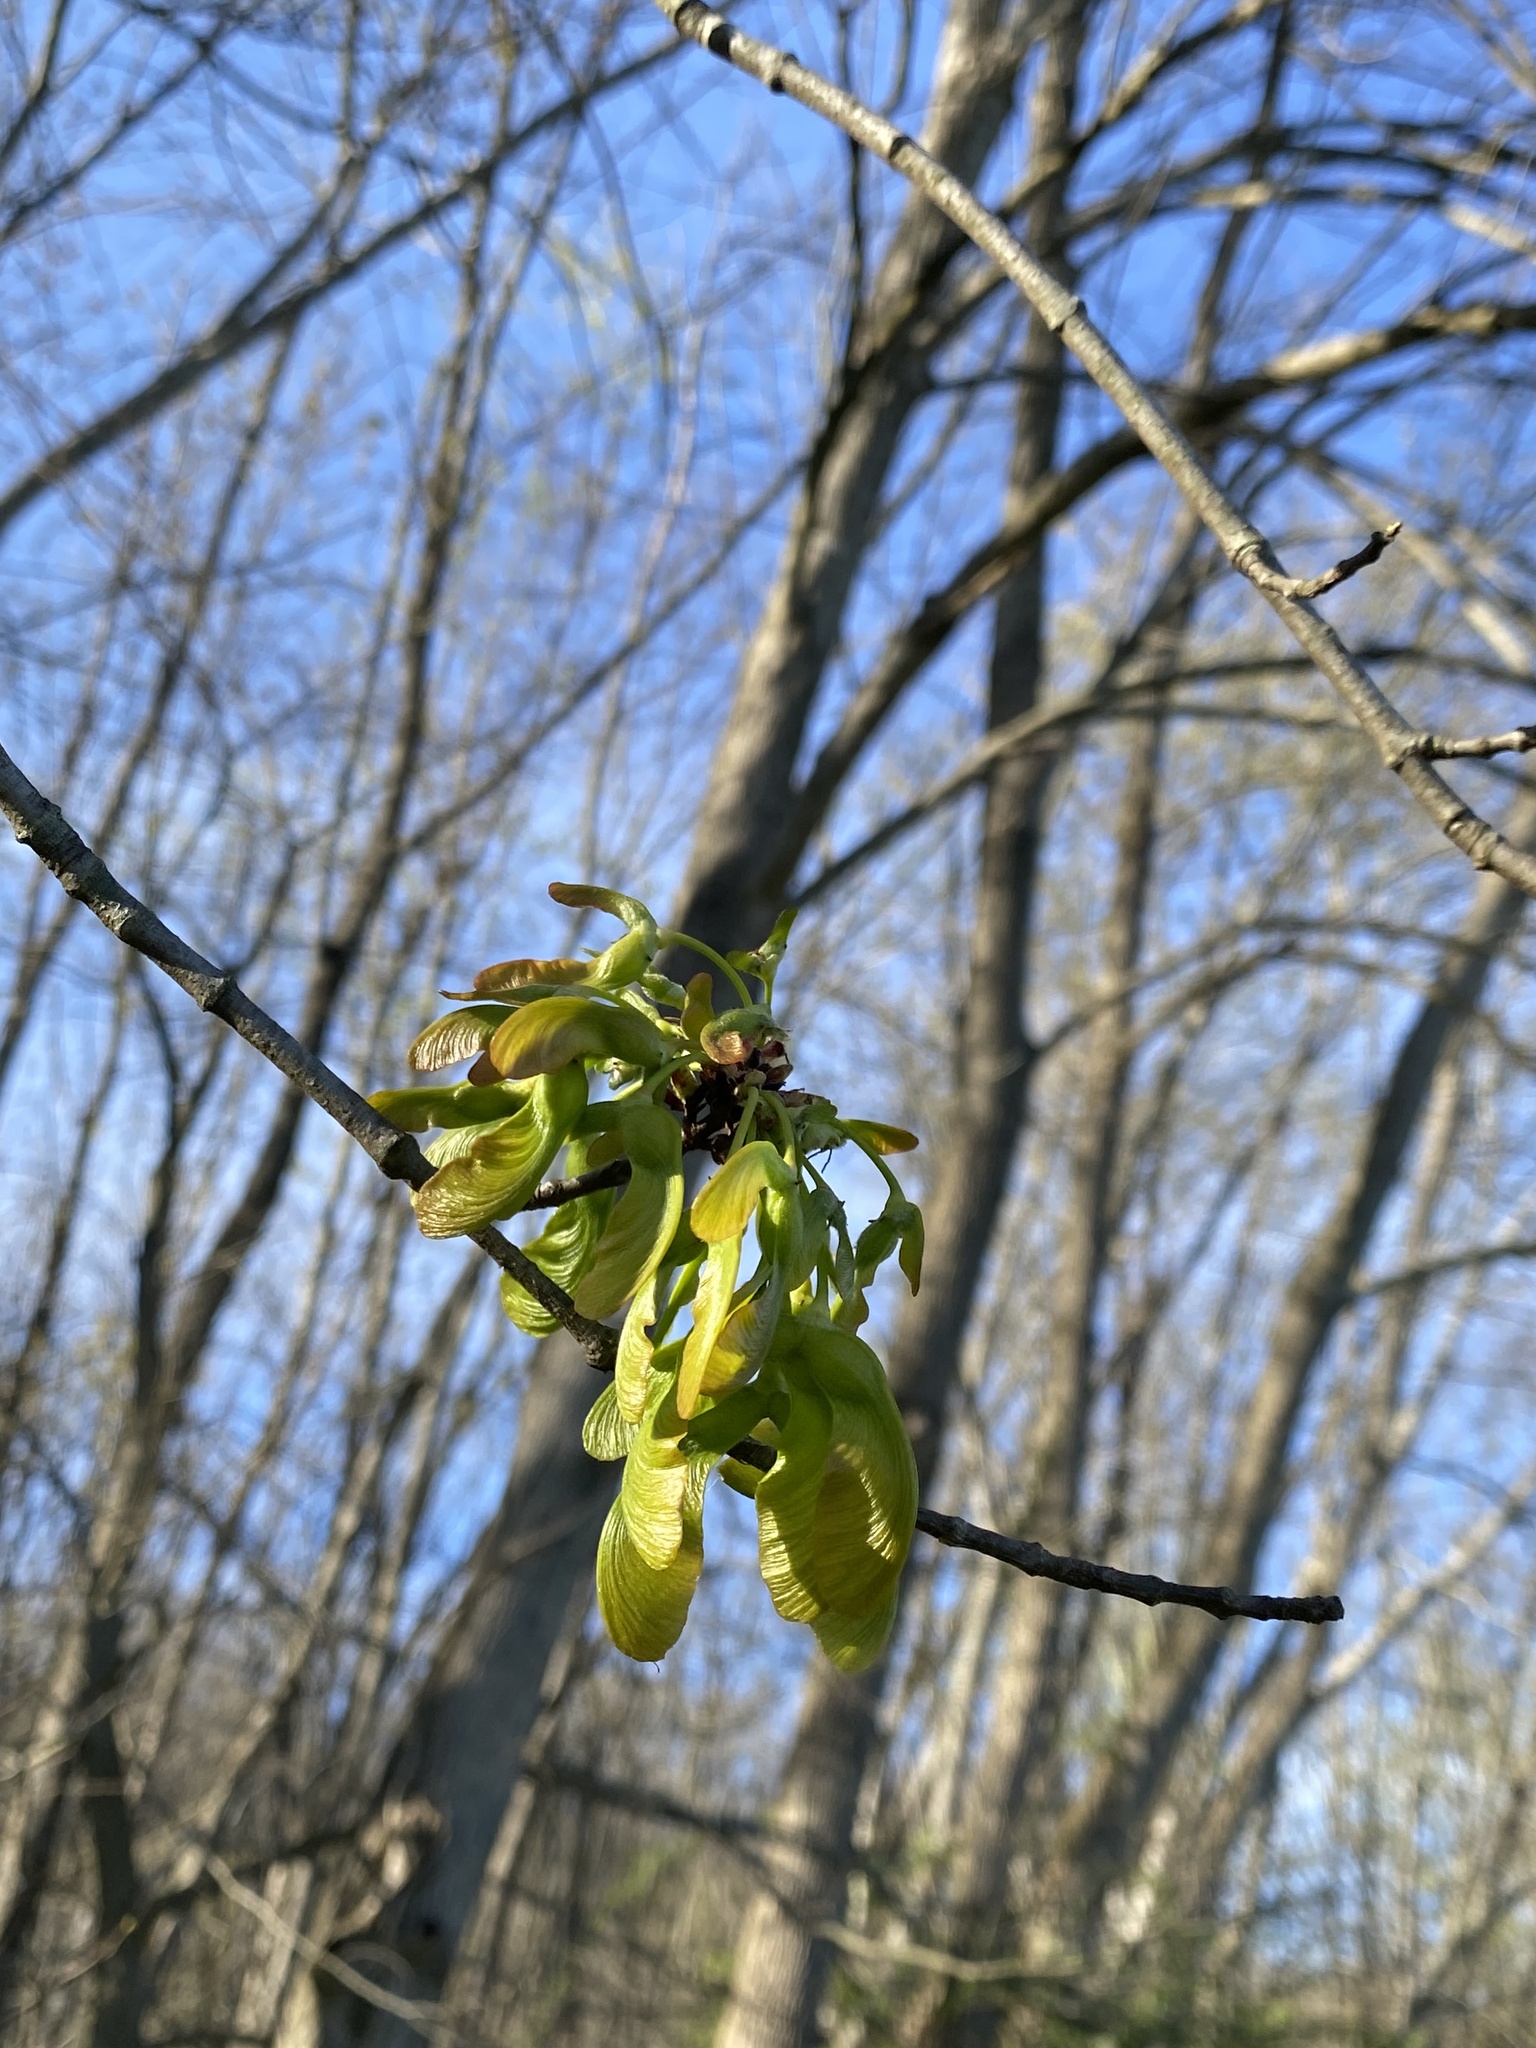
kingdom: Plantae
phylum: Tracheophyta
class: Magnoliopsida
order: Sapindales
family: Sapindaceae
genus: Acer
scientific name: Acer negundo
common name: Ashleaf maple
